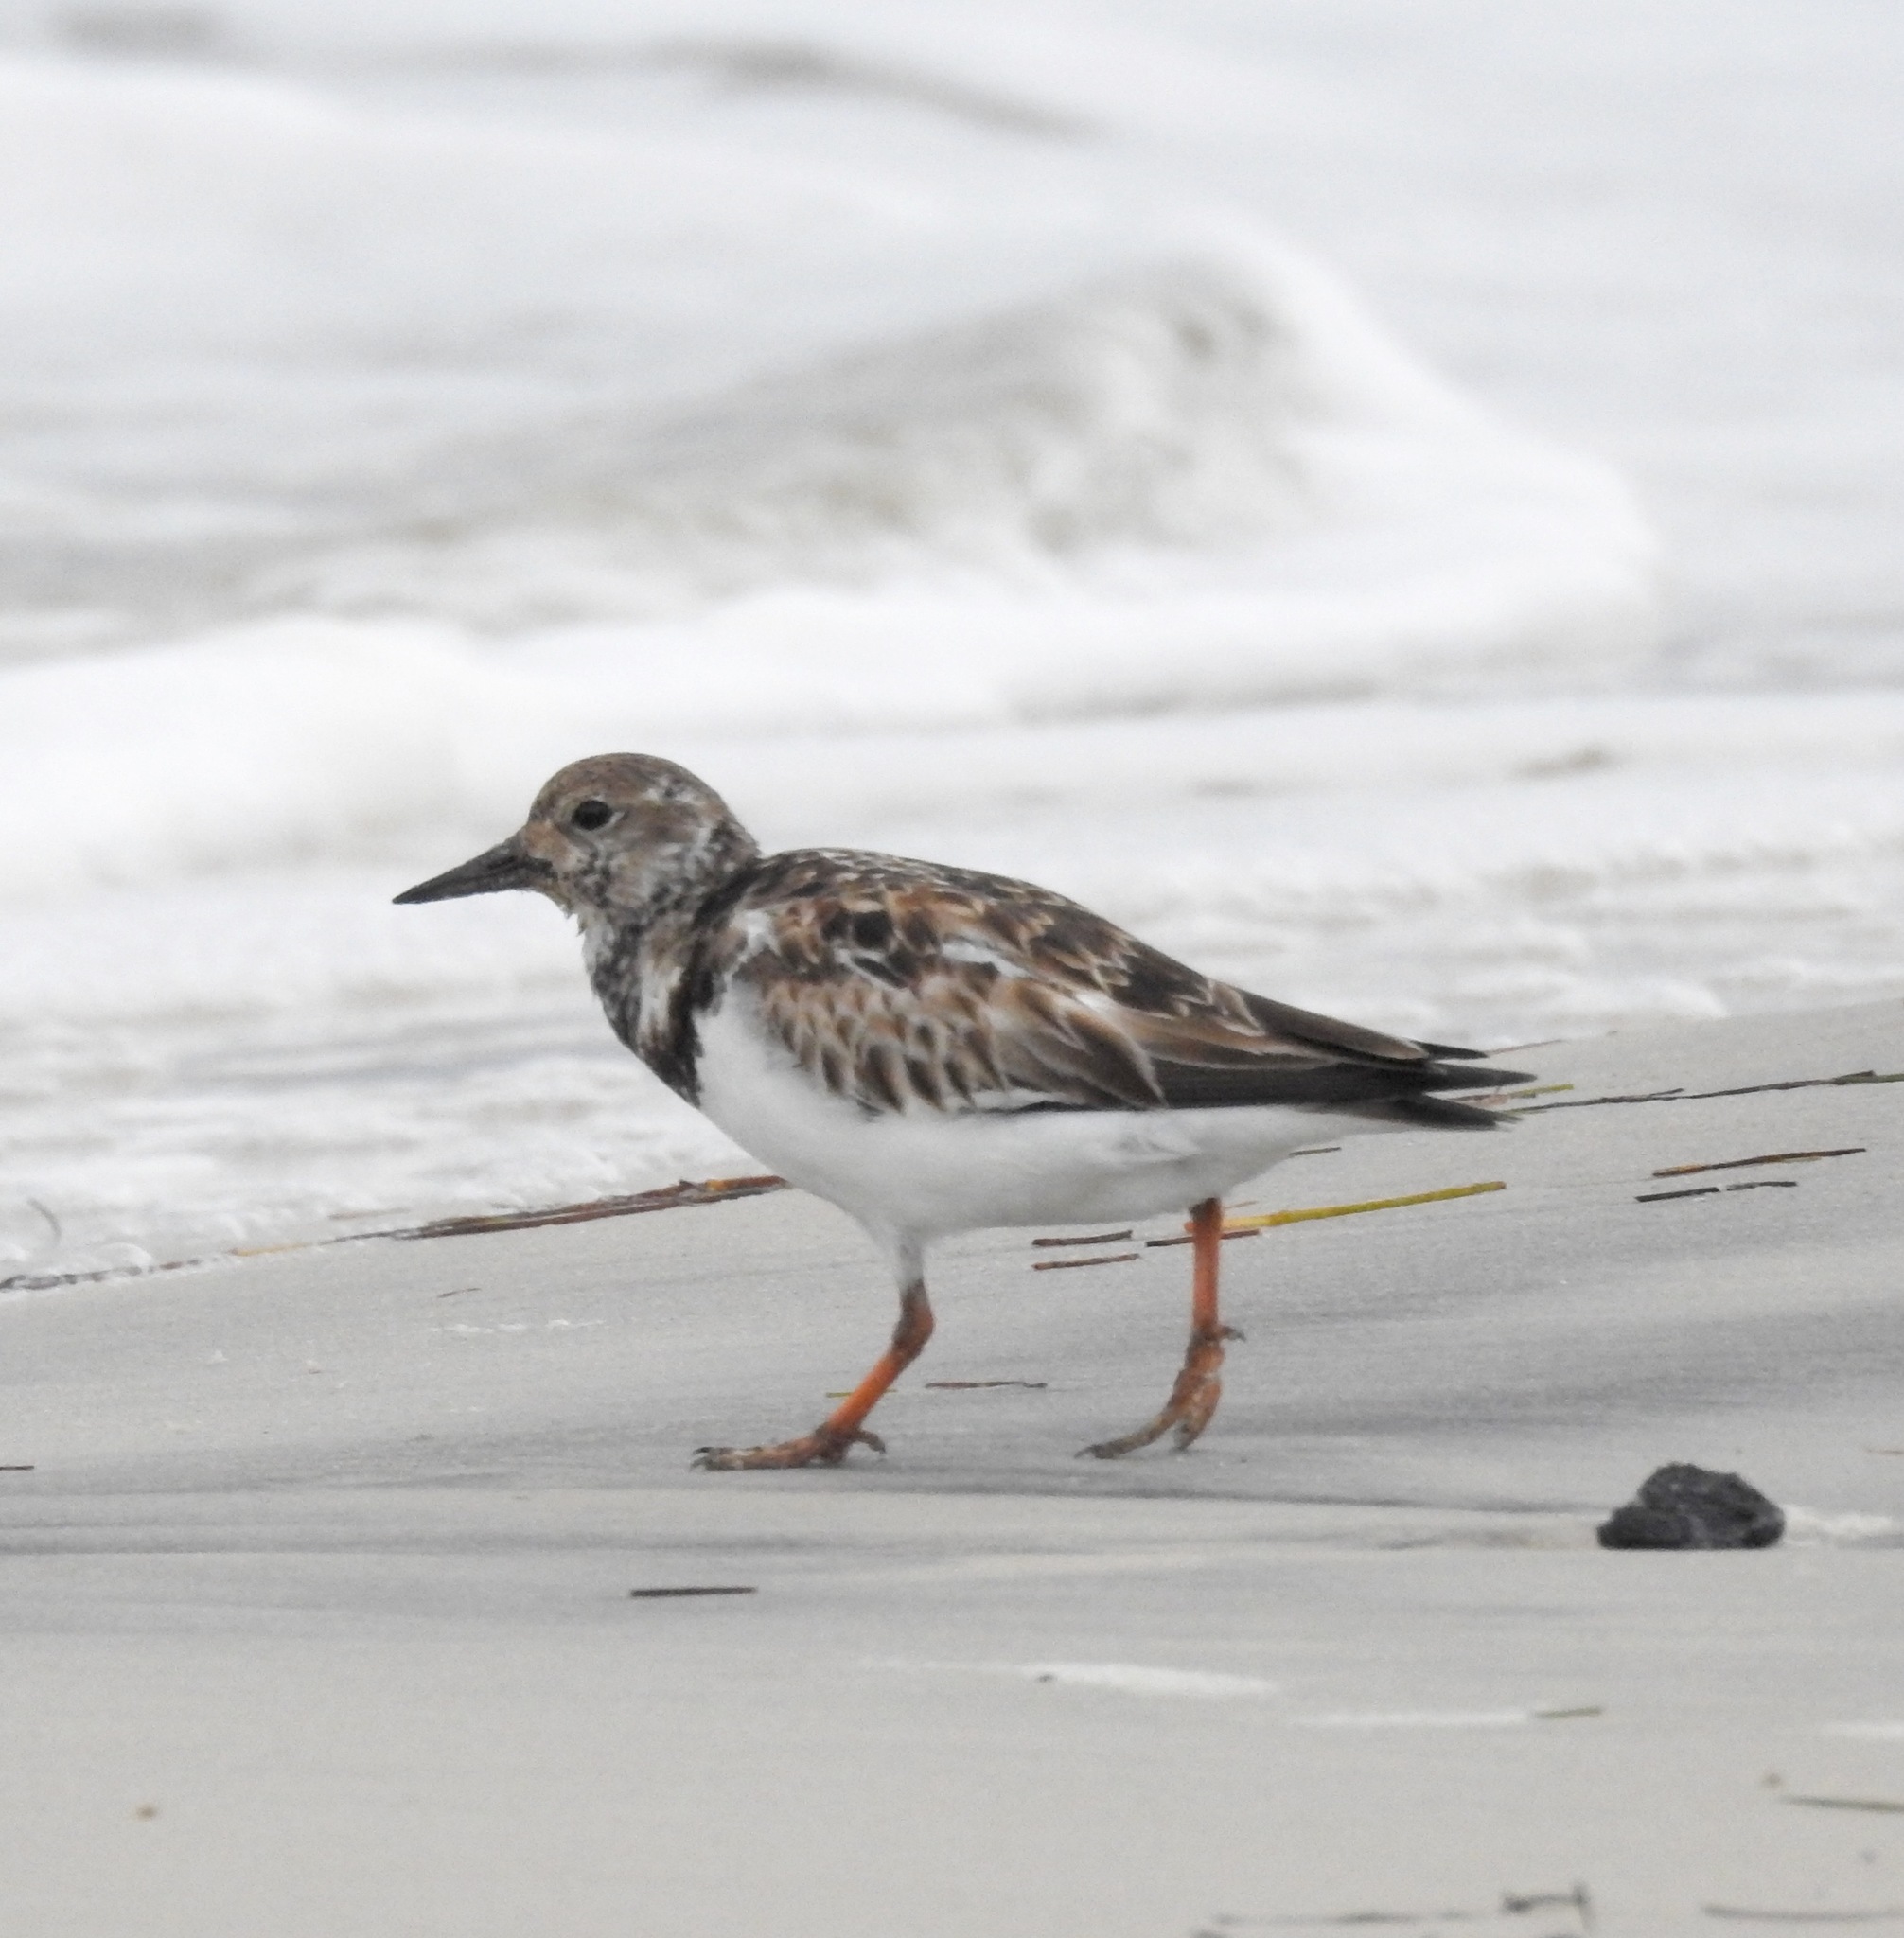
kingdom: Animalia
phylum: Chordata
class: Aves
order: Charadriiformes
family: Scolopacidae
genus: Arenaria
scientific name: Arenaria interpres
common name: Ruddy turnstone
